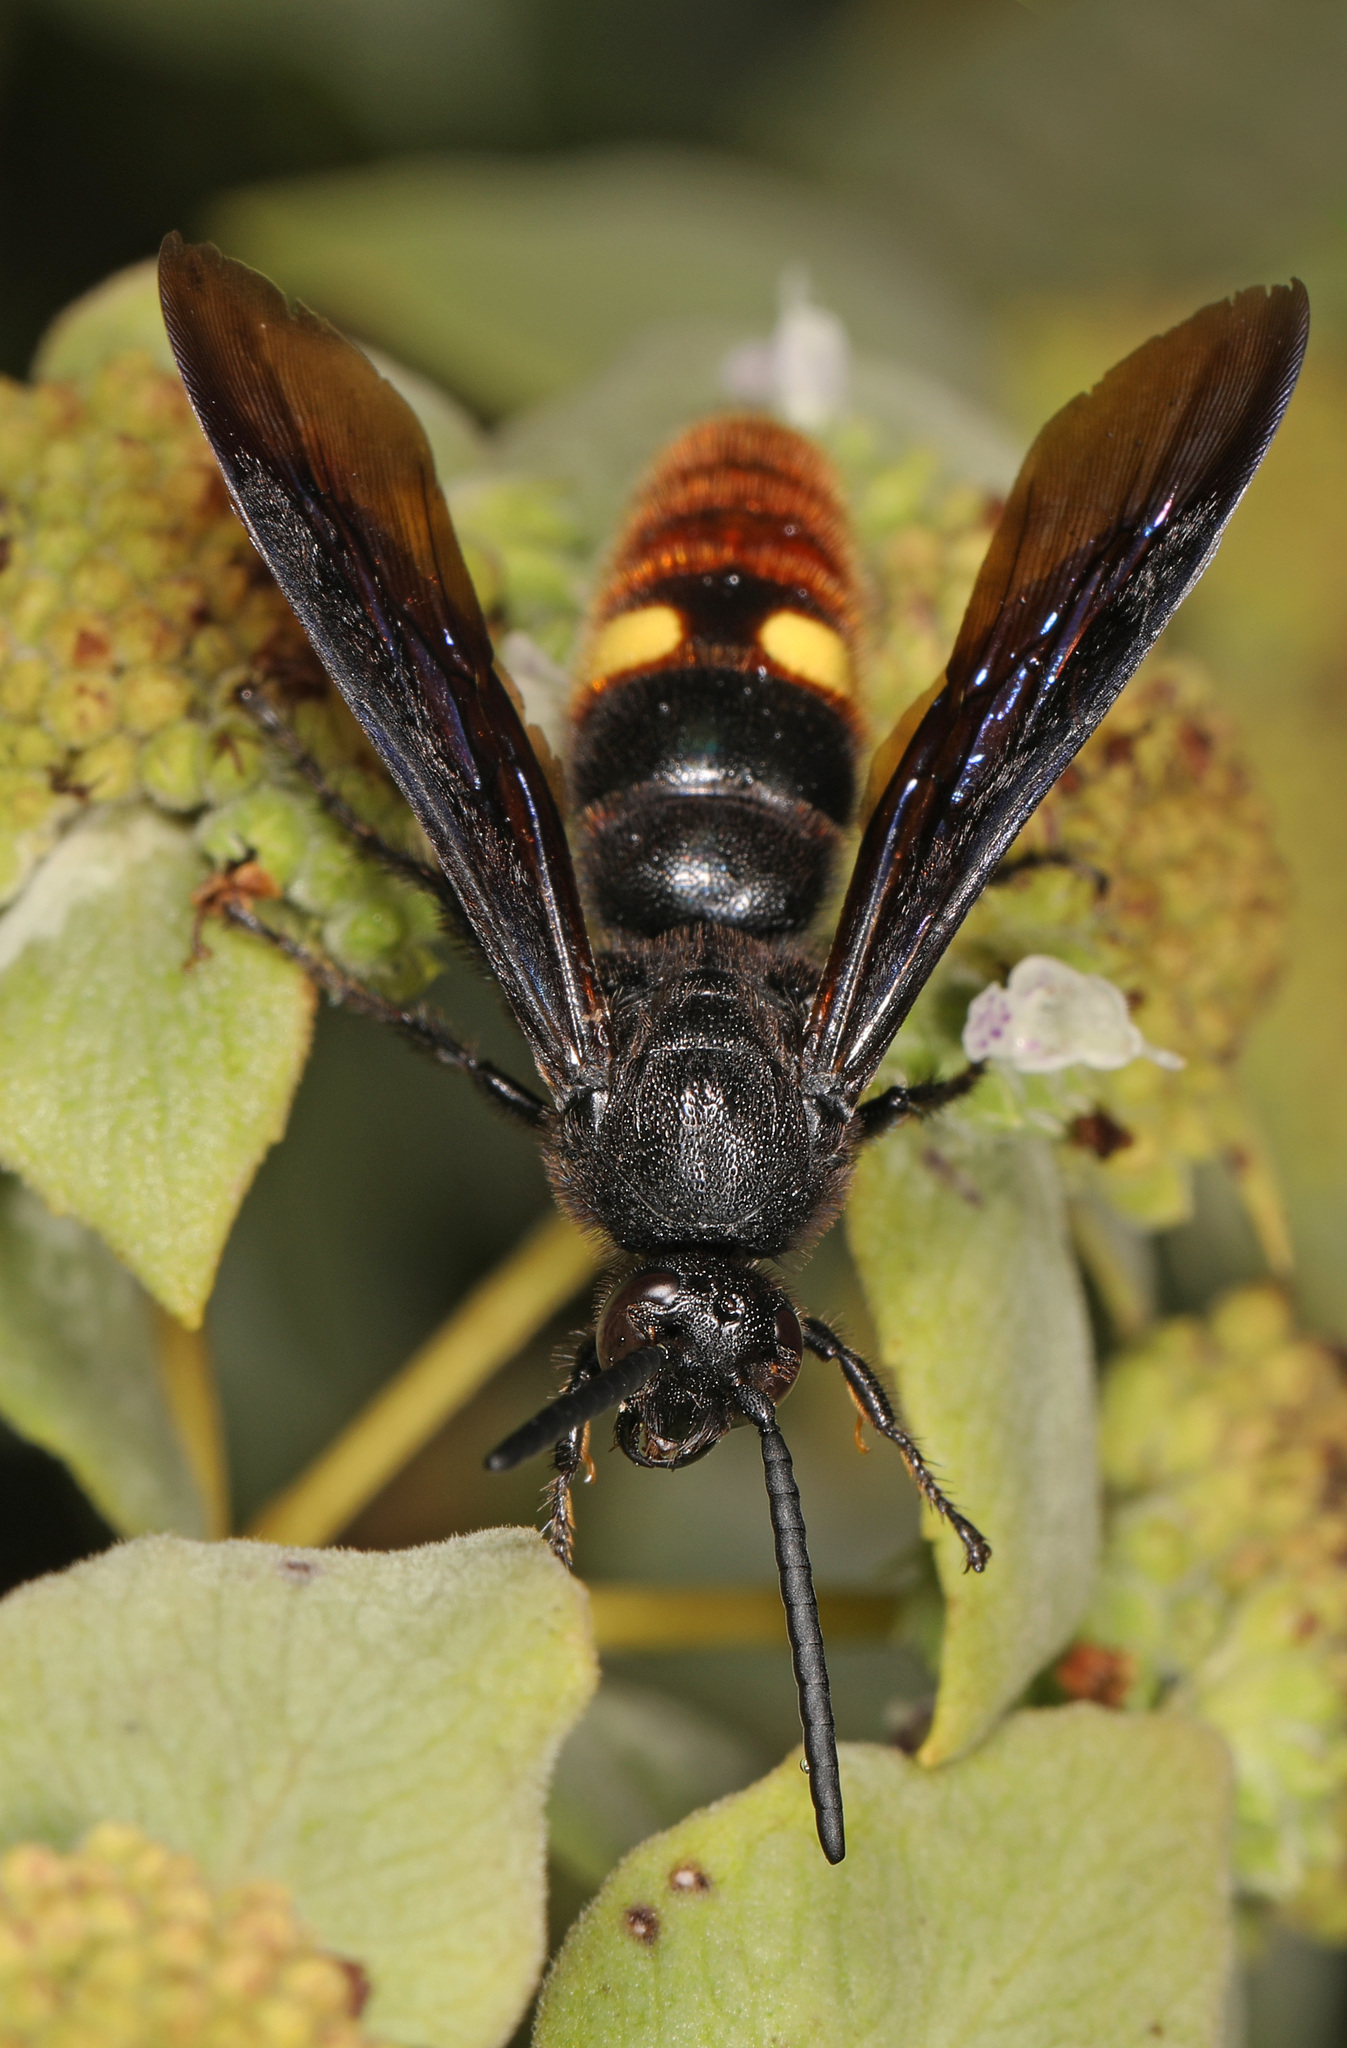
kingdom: Animalia
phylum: Arthropoda
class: Insecta
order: Hymenoptera
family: Scoliidae
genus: Scolia
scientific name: Scolia dubia
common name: Blue-winged scoliid wasp
